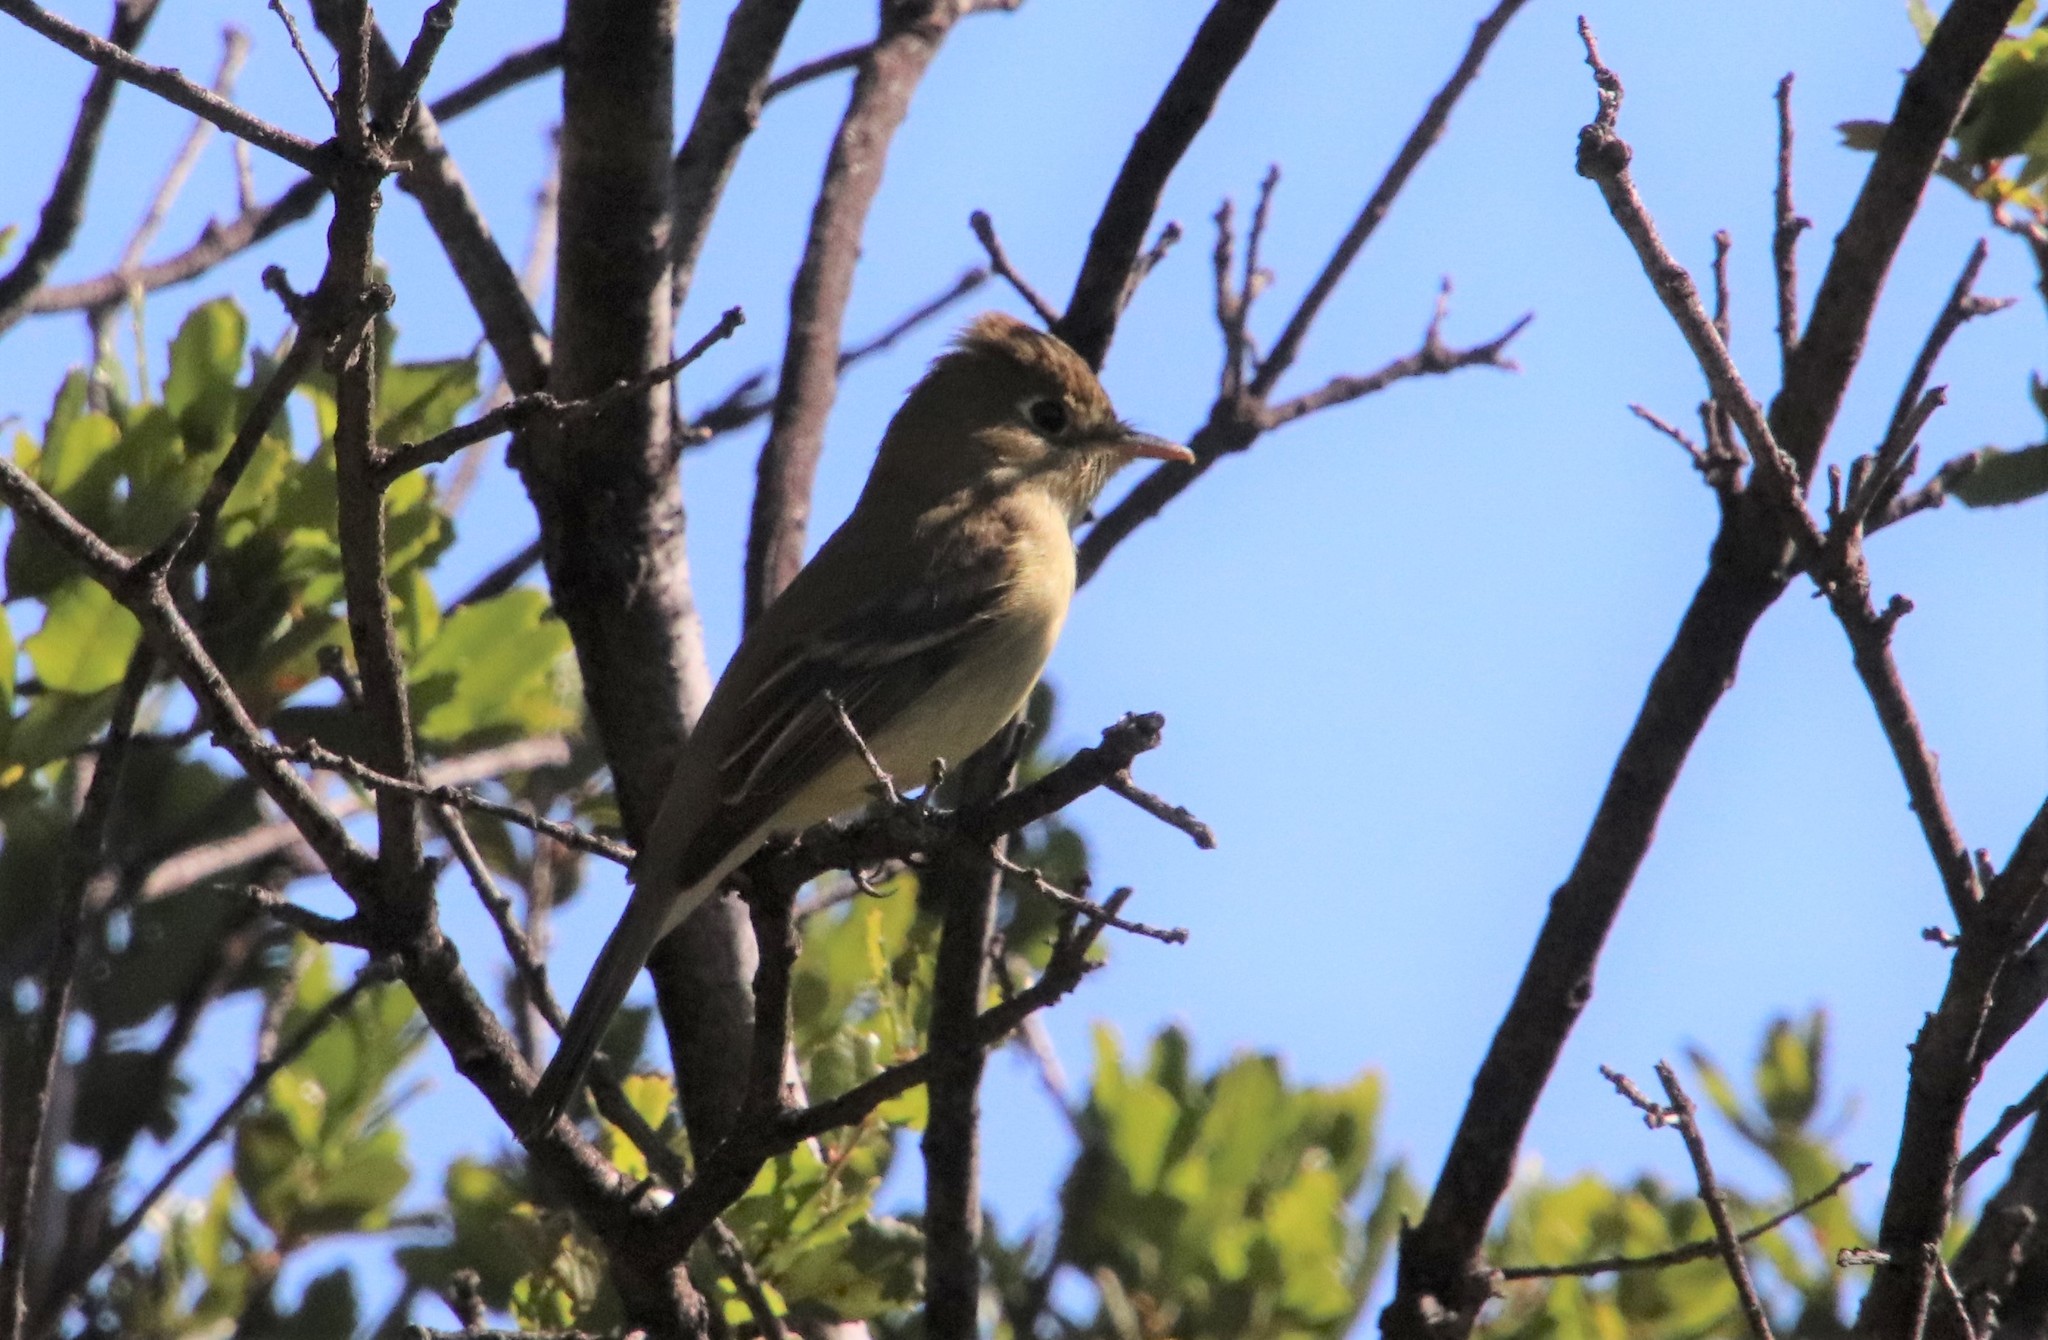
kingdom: Animalia
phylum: Chordata
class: Aves
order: Passeriformes
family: Tyrannidae
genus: Empidonax
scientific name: Empidonax difficilis
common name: Pacific-slope flycatcher
